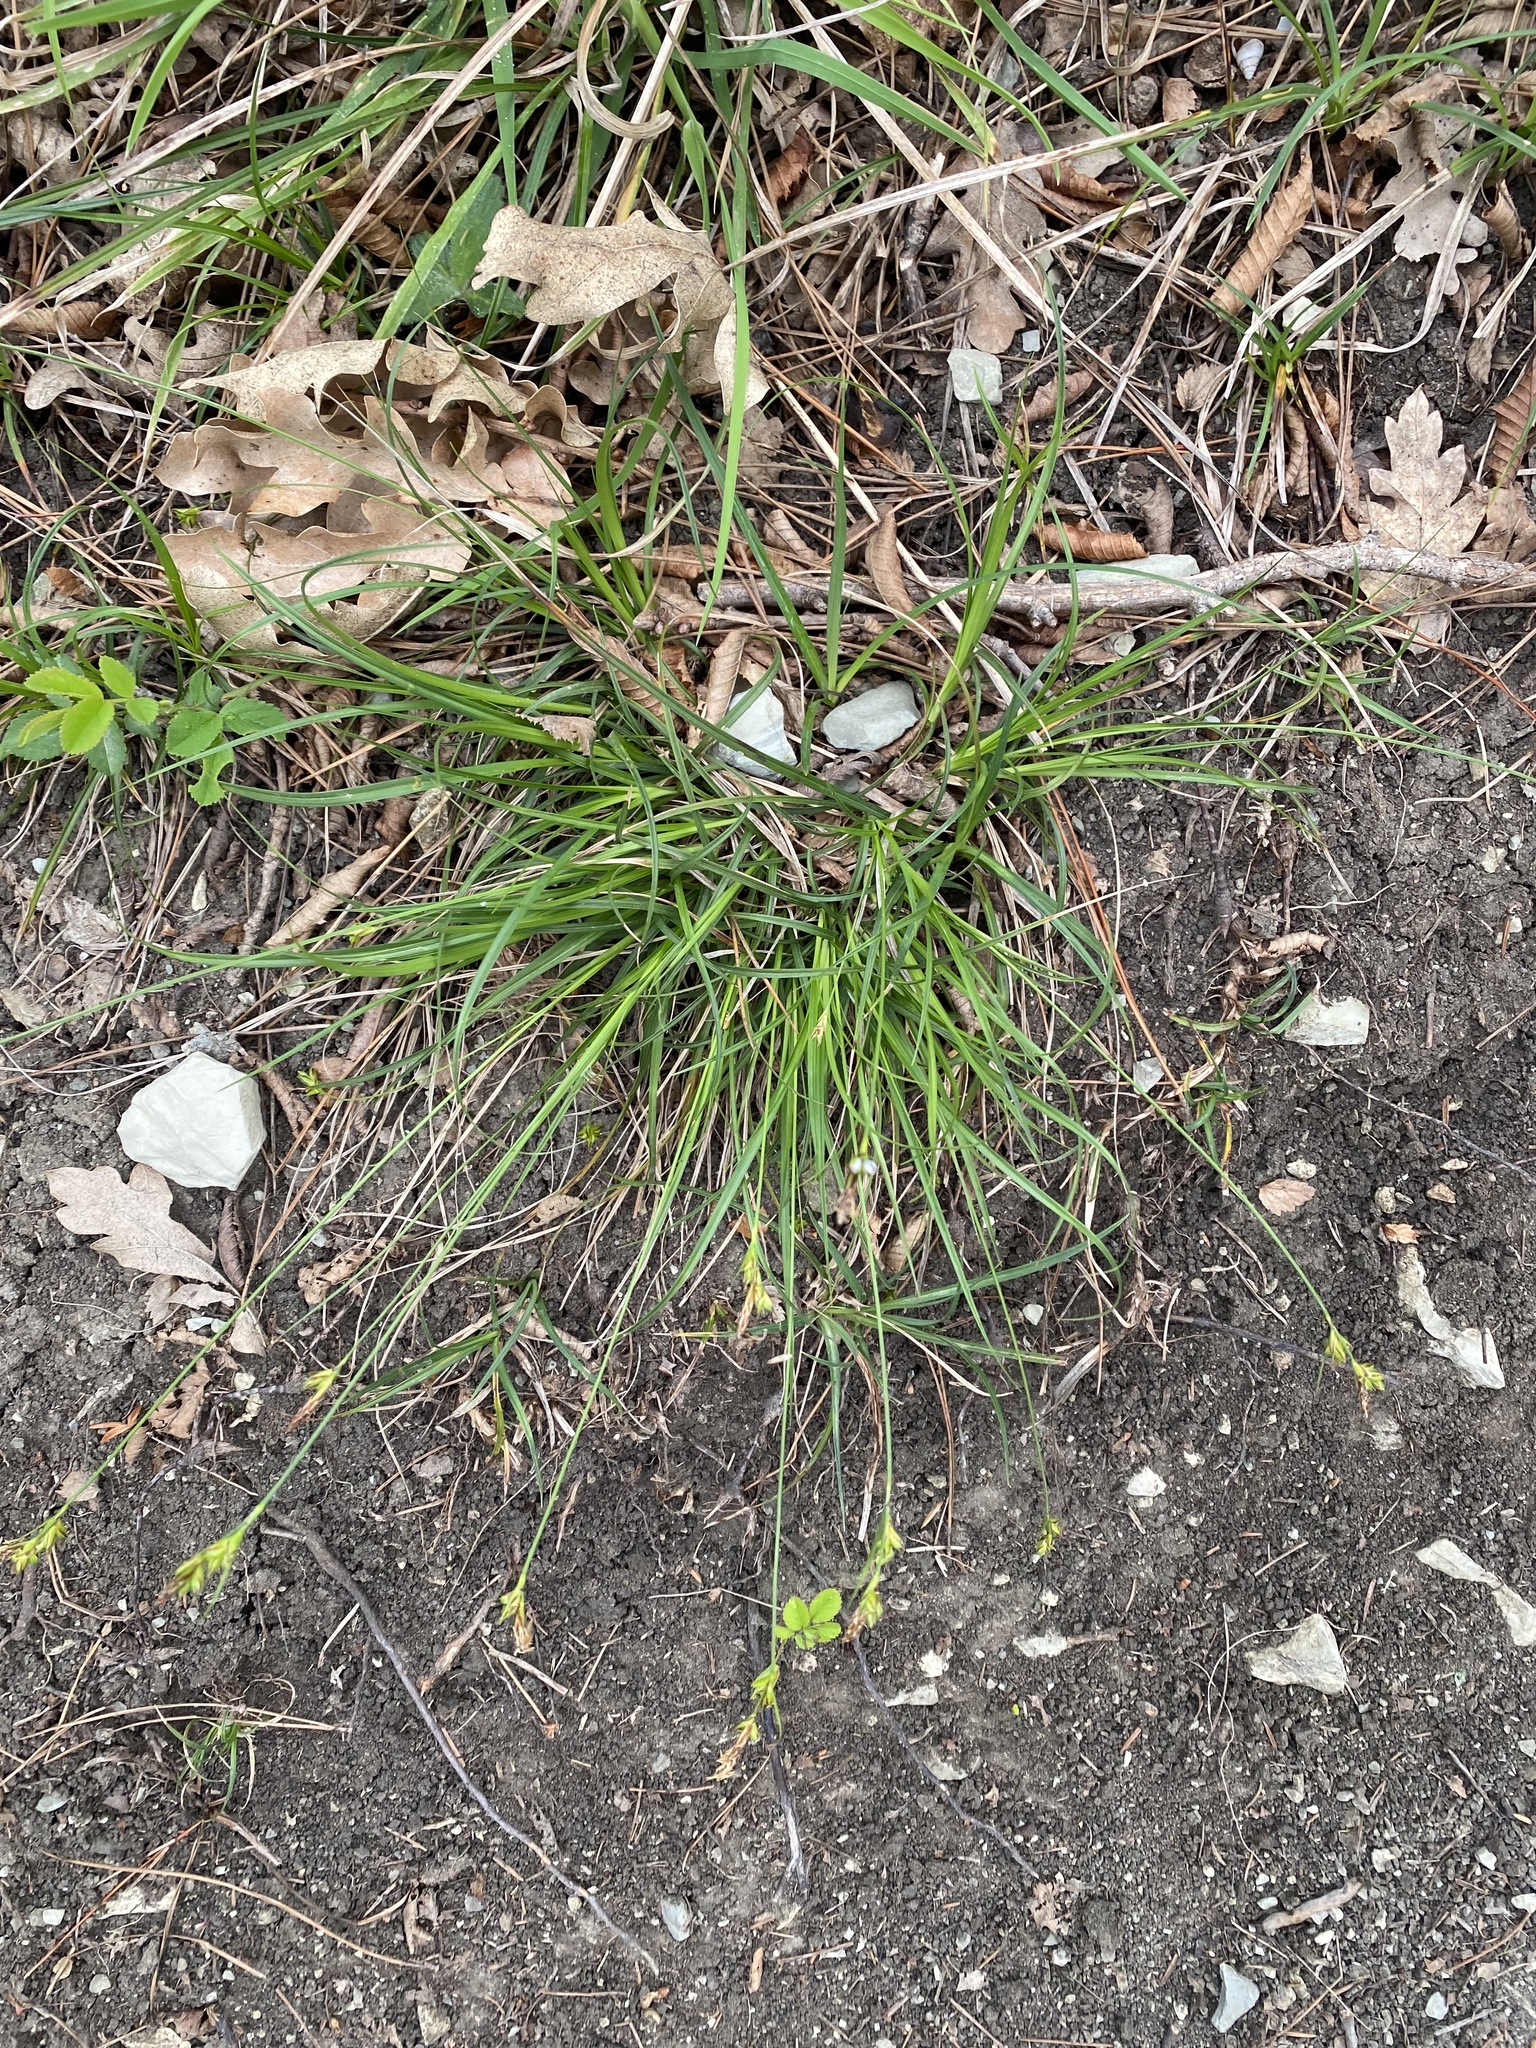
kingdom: Plantae
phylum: Tracheophyta
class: Liliopsida
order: Poales
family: Cyperaceae
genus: Carex
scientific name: Carex halleriana
